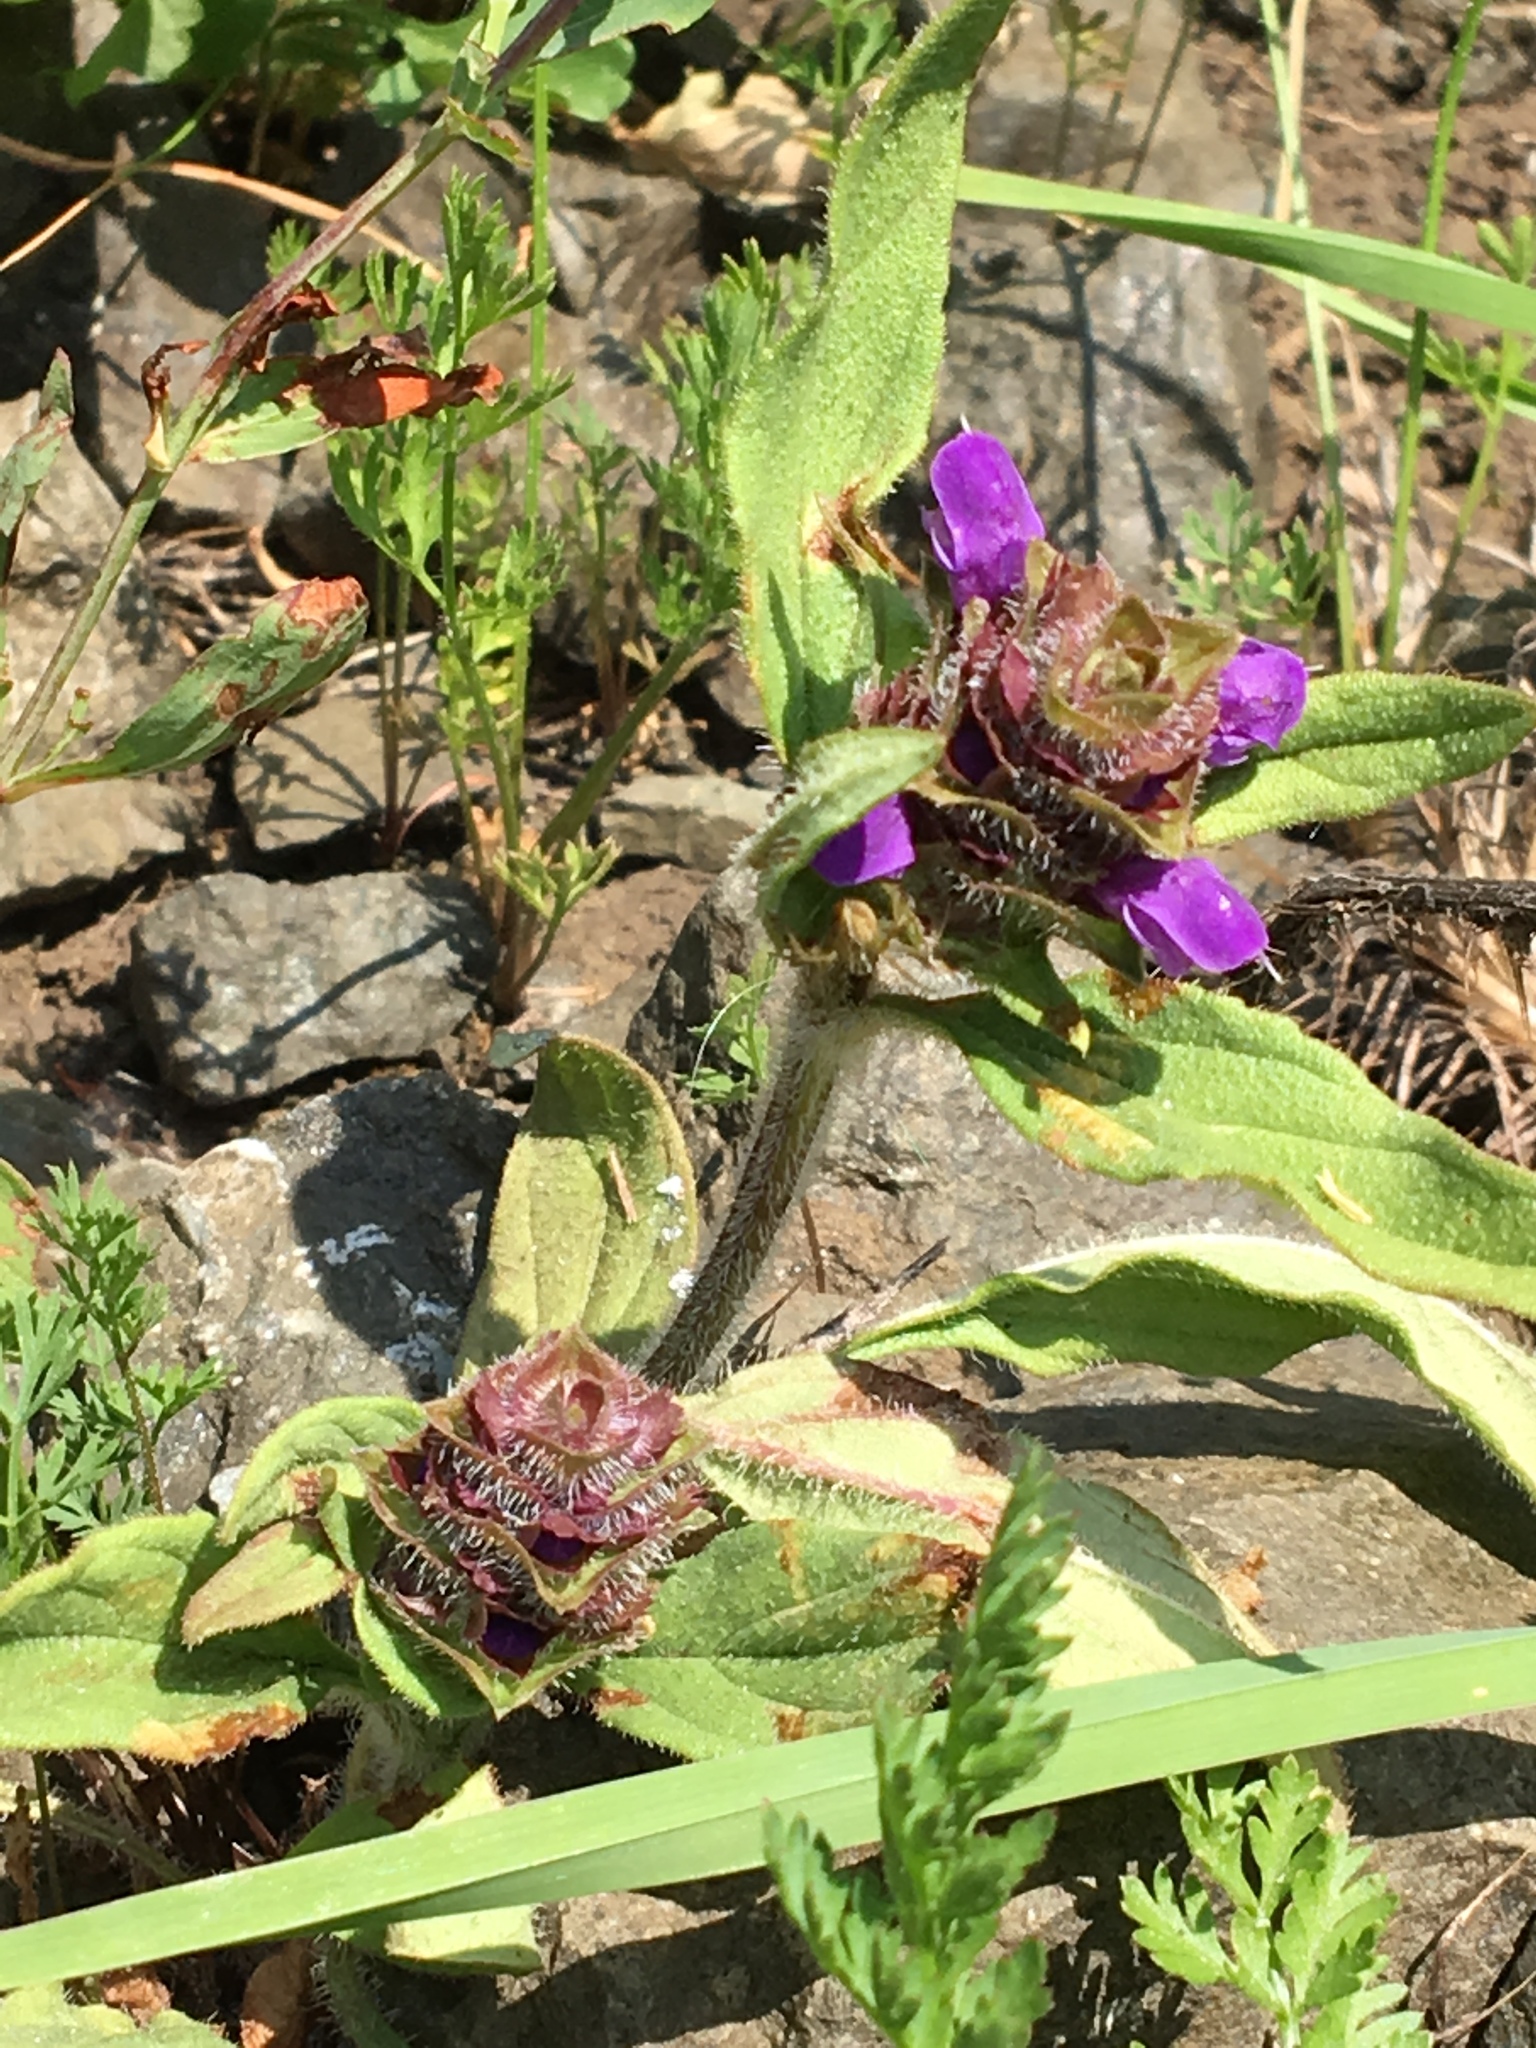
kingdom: Plantae
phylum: Tracheophyta
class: Magnoliopsida
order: Lamiales
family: Lamiaceae
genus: Prunella
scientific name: Prunella vulgaris
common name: Heal-all
